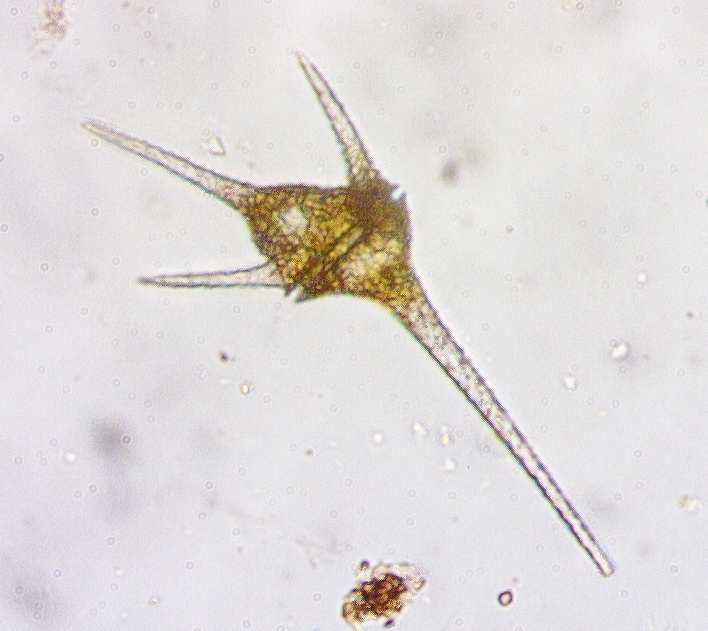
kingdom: Chromista
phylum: Myzozoa
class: Dinophyceae
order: Gonyaulacales
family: Ceratiaceae
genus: Ceratium
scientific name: Ceratium hirundinella
